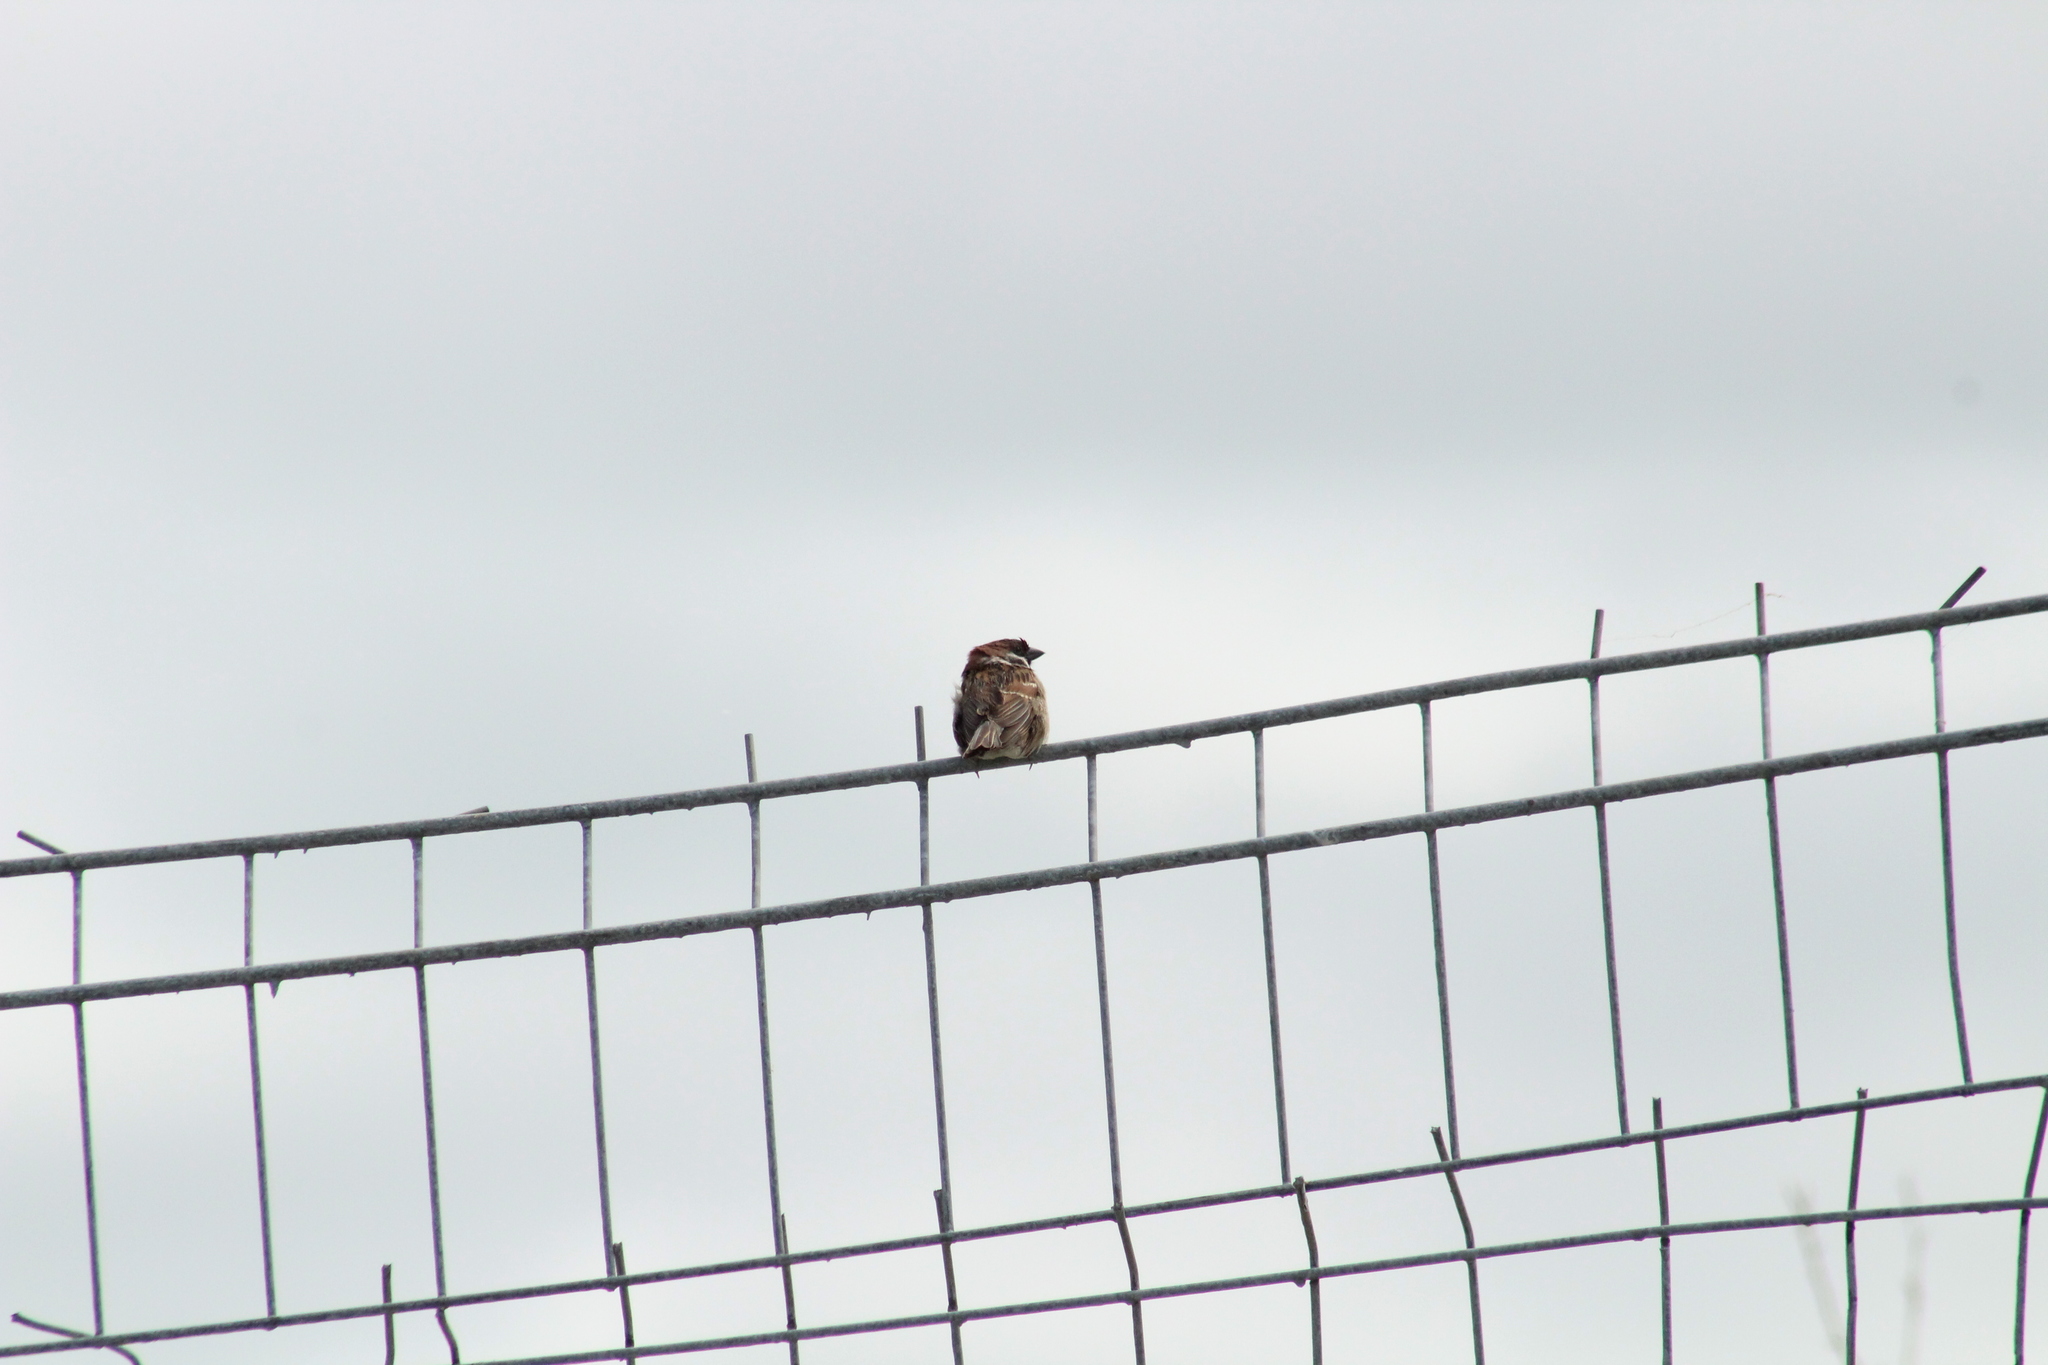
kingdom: Animalia
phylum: Chordata
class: Aves
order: Passeriformes
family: Passeridae
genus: Passer
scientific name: Passer montanus
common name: Eurasian tree sparrow
